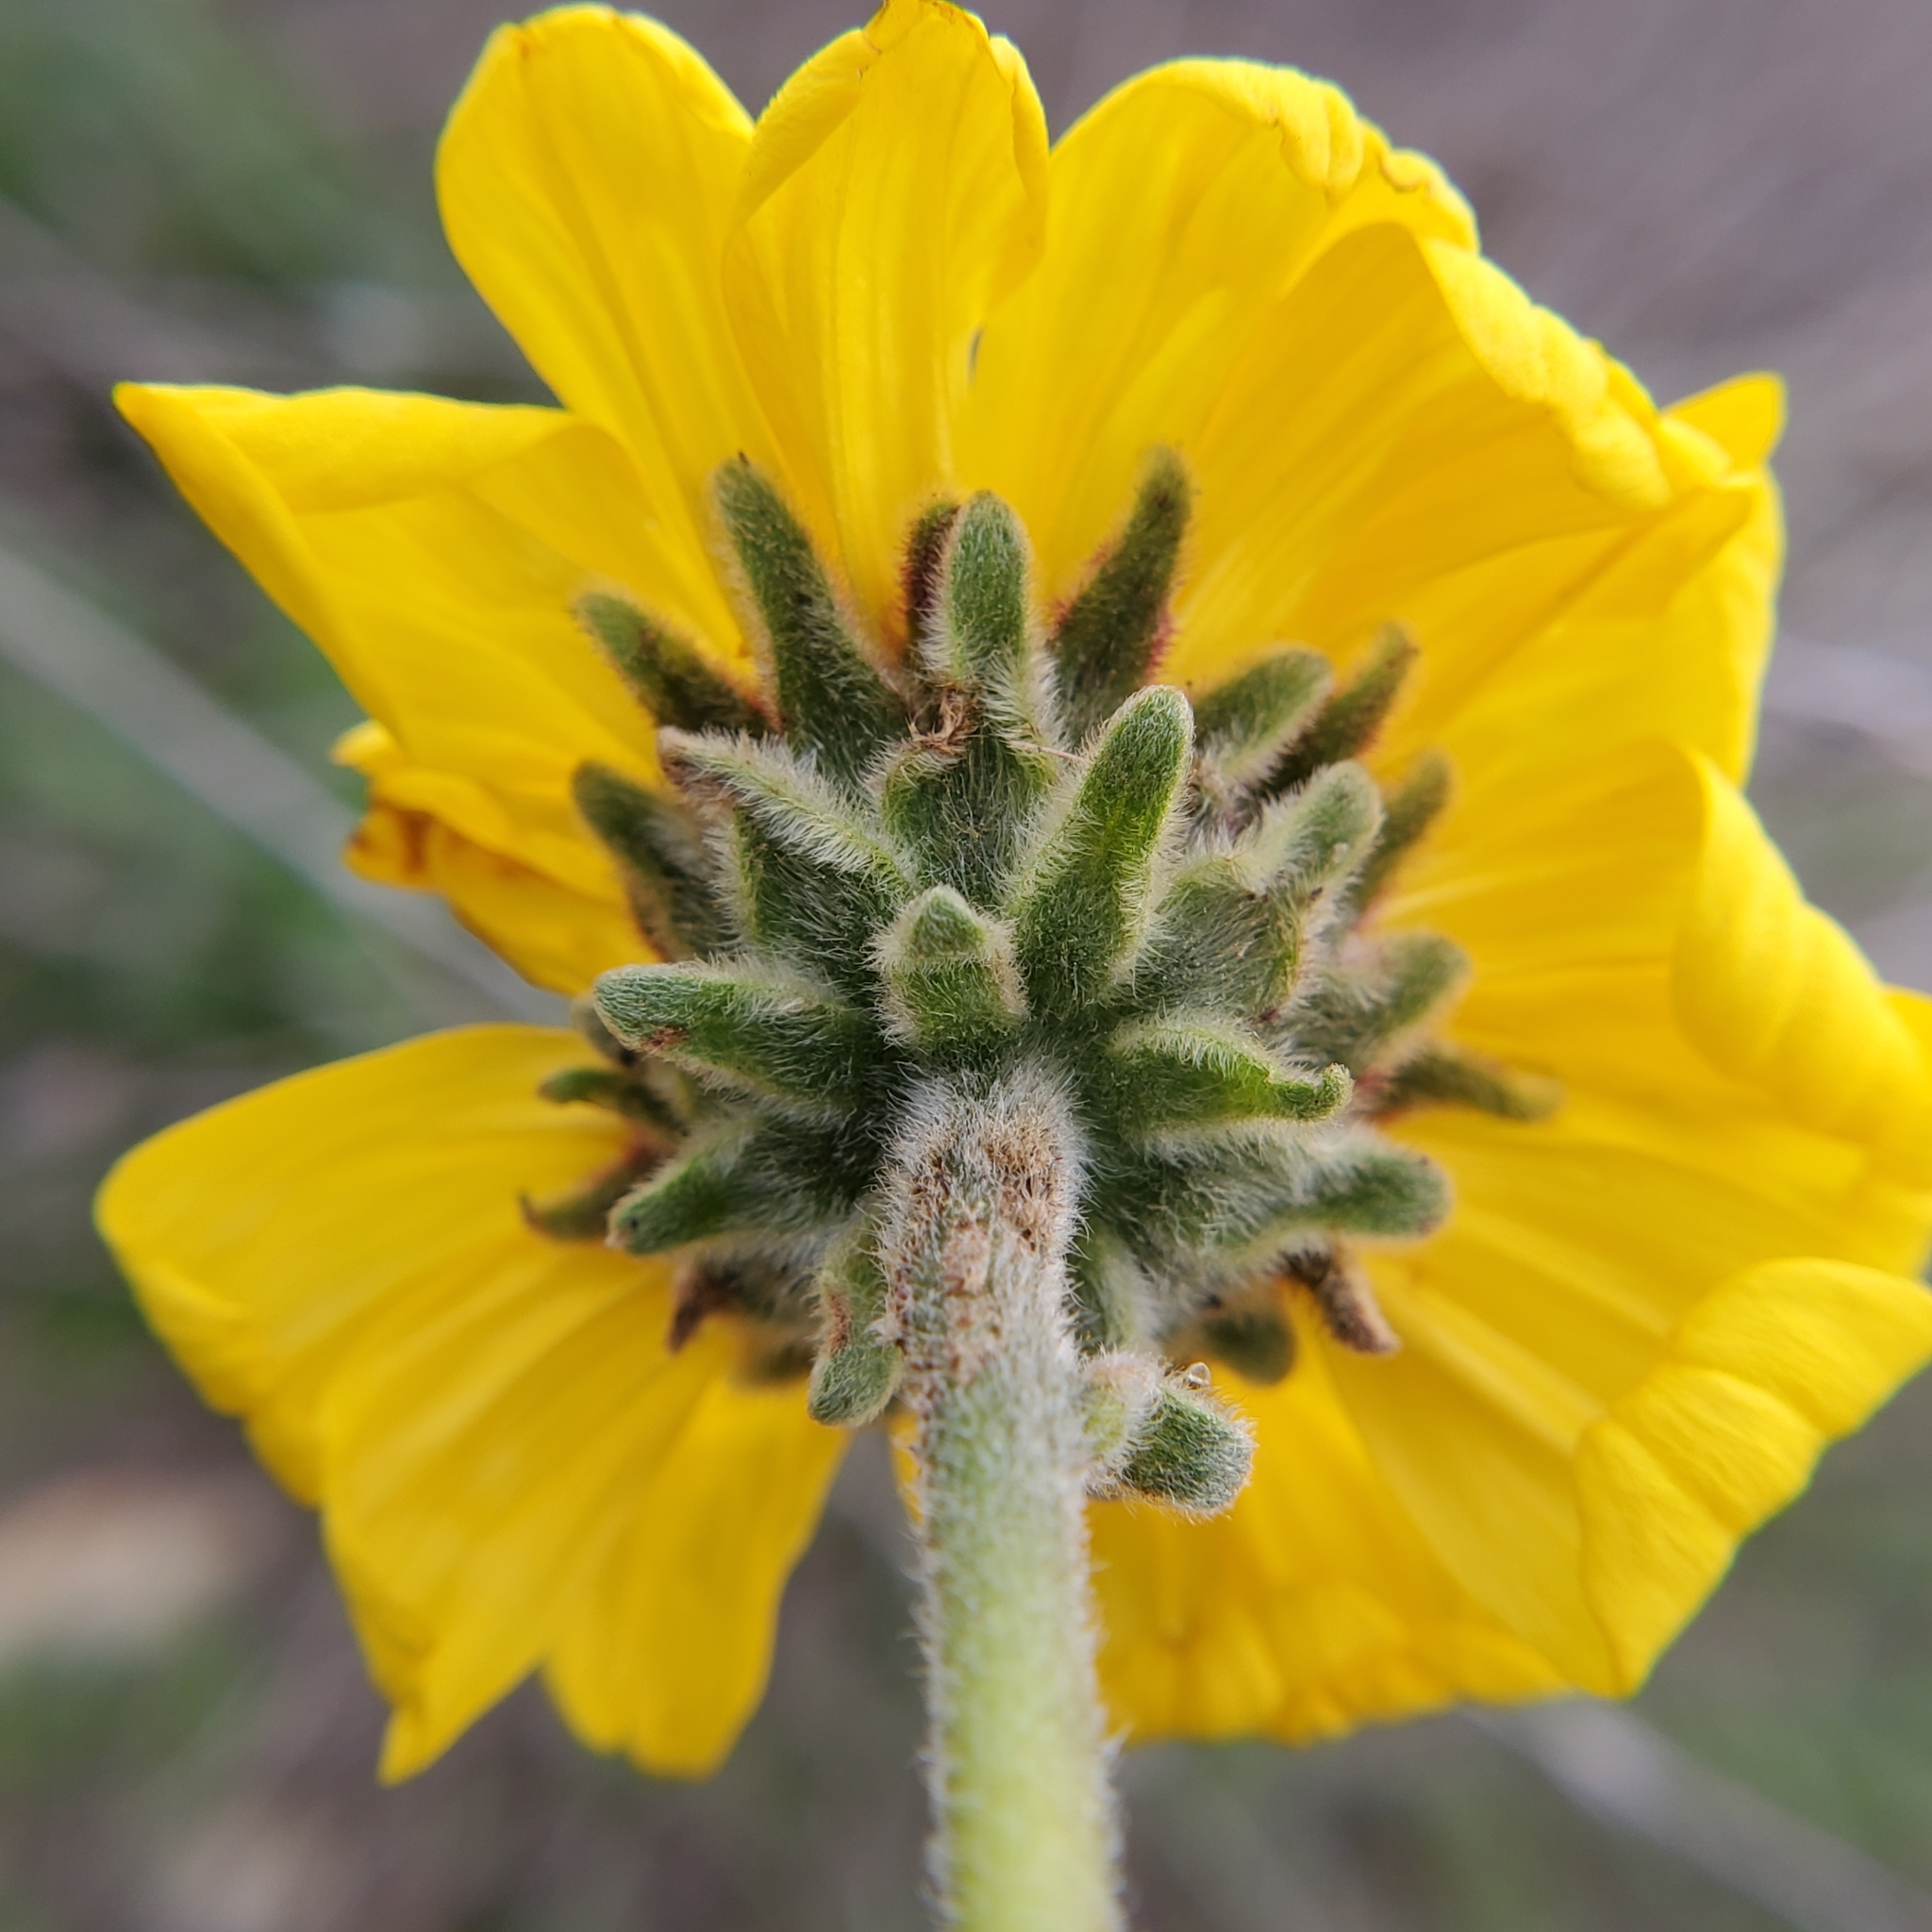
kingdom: Plantae
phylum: Tracheophyta
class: Magnoliopsida
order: Asterales
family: Asteraceae
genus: Encelia
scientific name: Encelia californica
